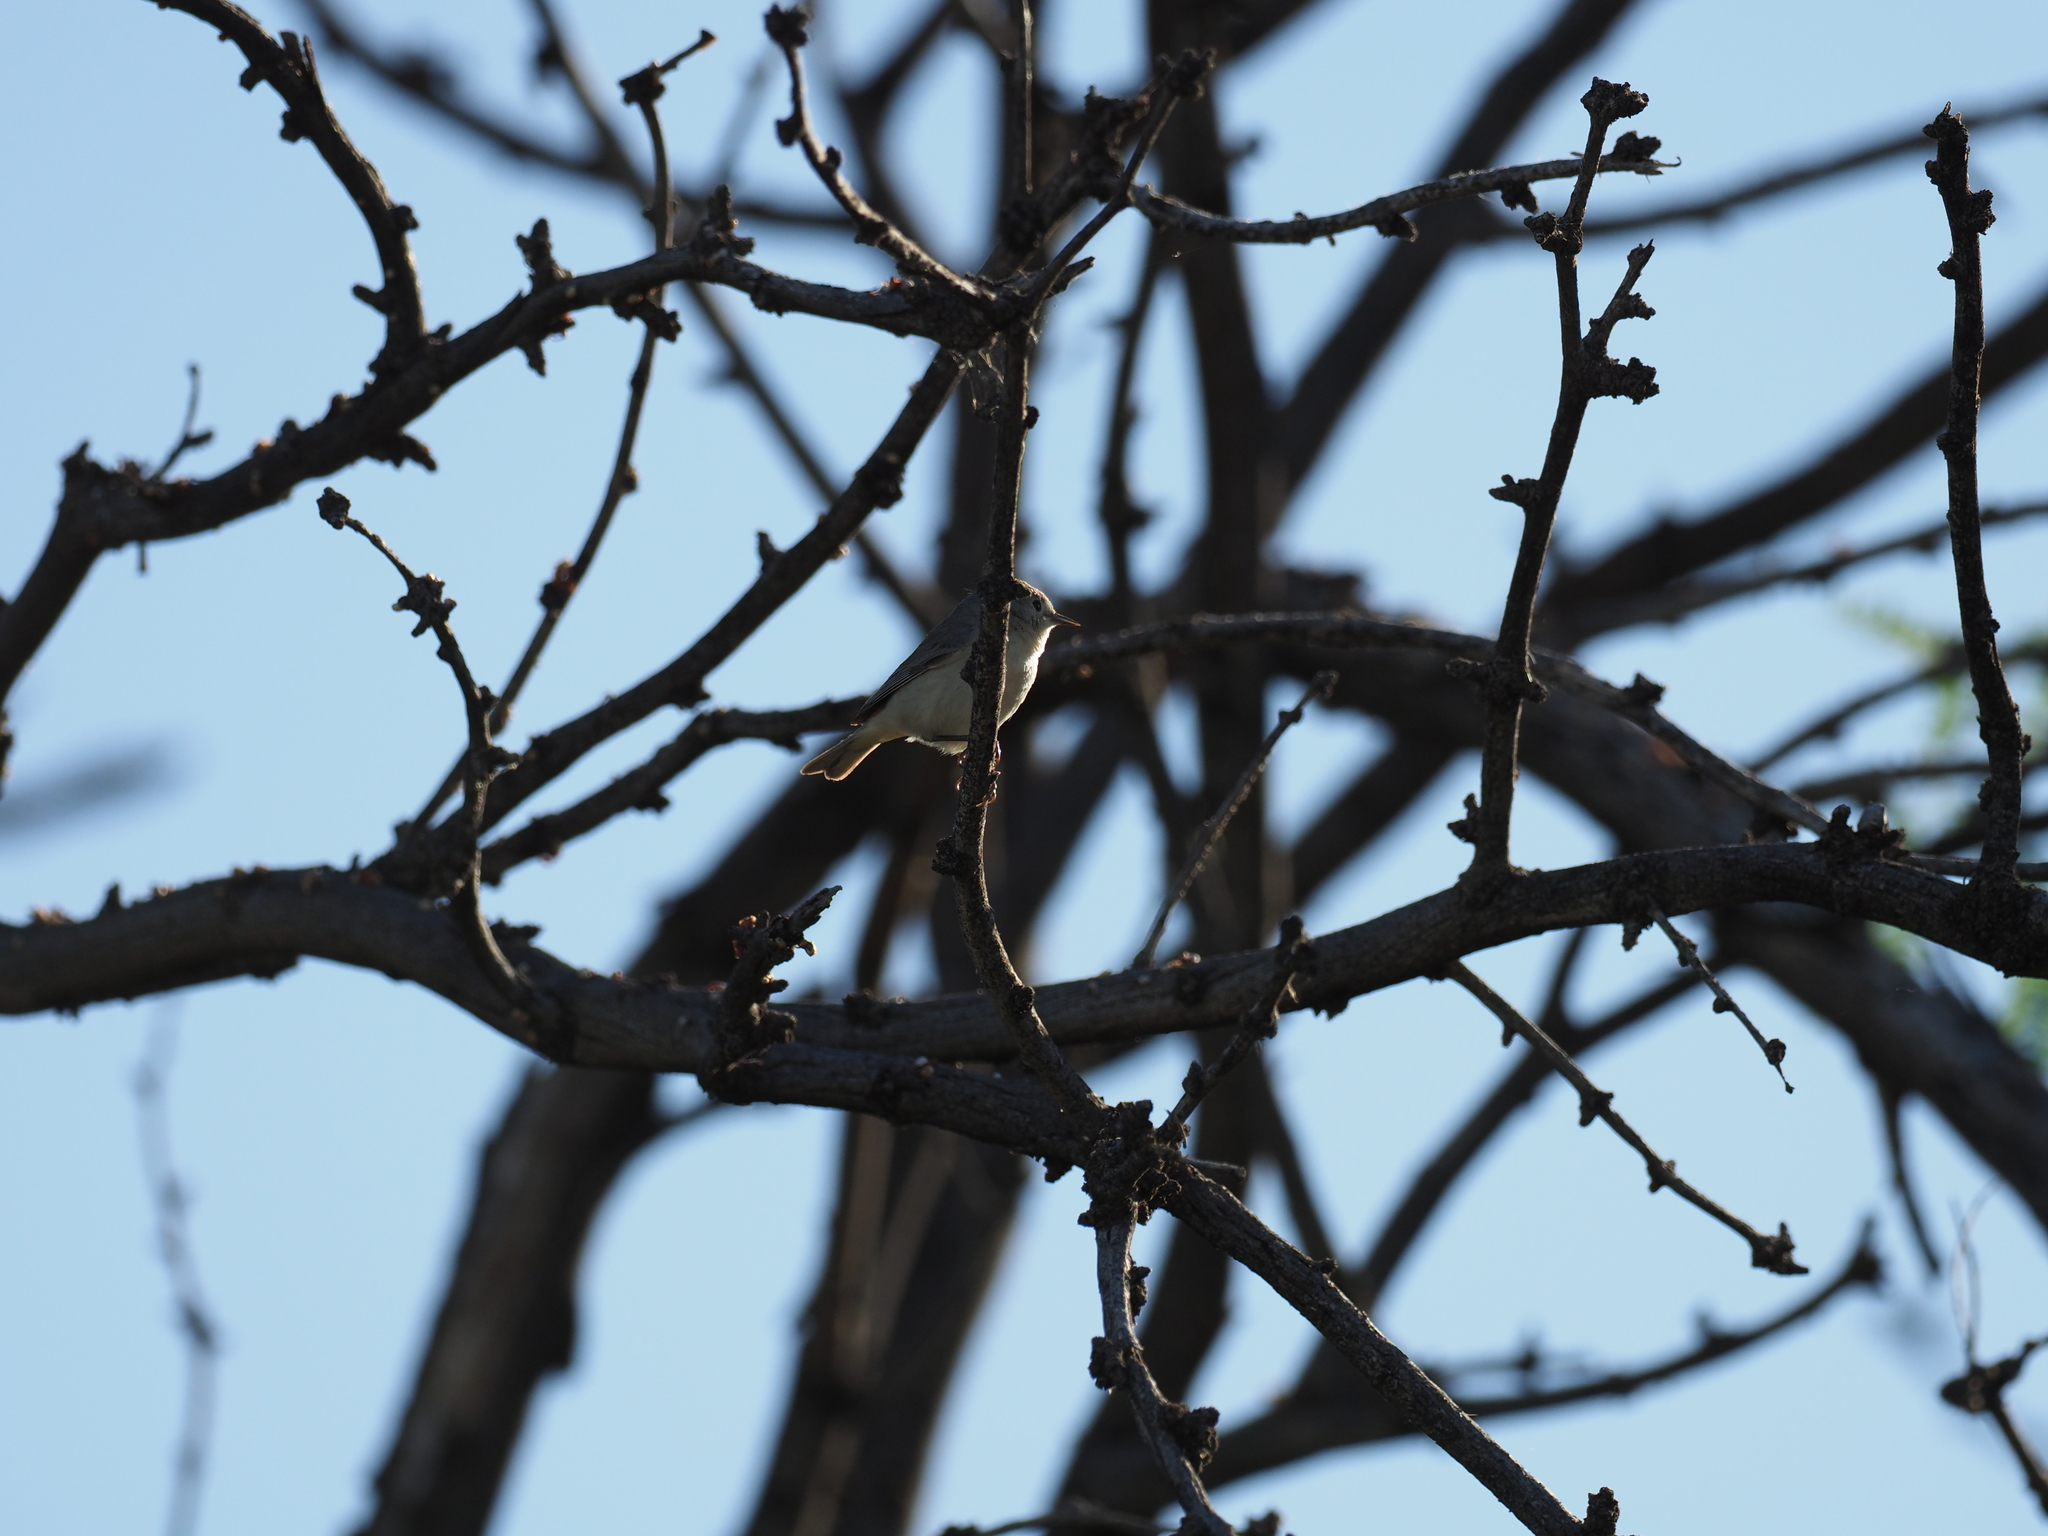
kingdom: Animalia
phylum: Chordata
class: Aves
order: Passeriformes
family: Parulidae
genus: Leiothlypis
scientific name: Leiothlypis luciae
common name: Lucy's warbler
